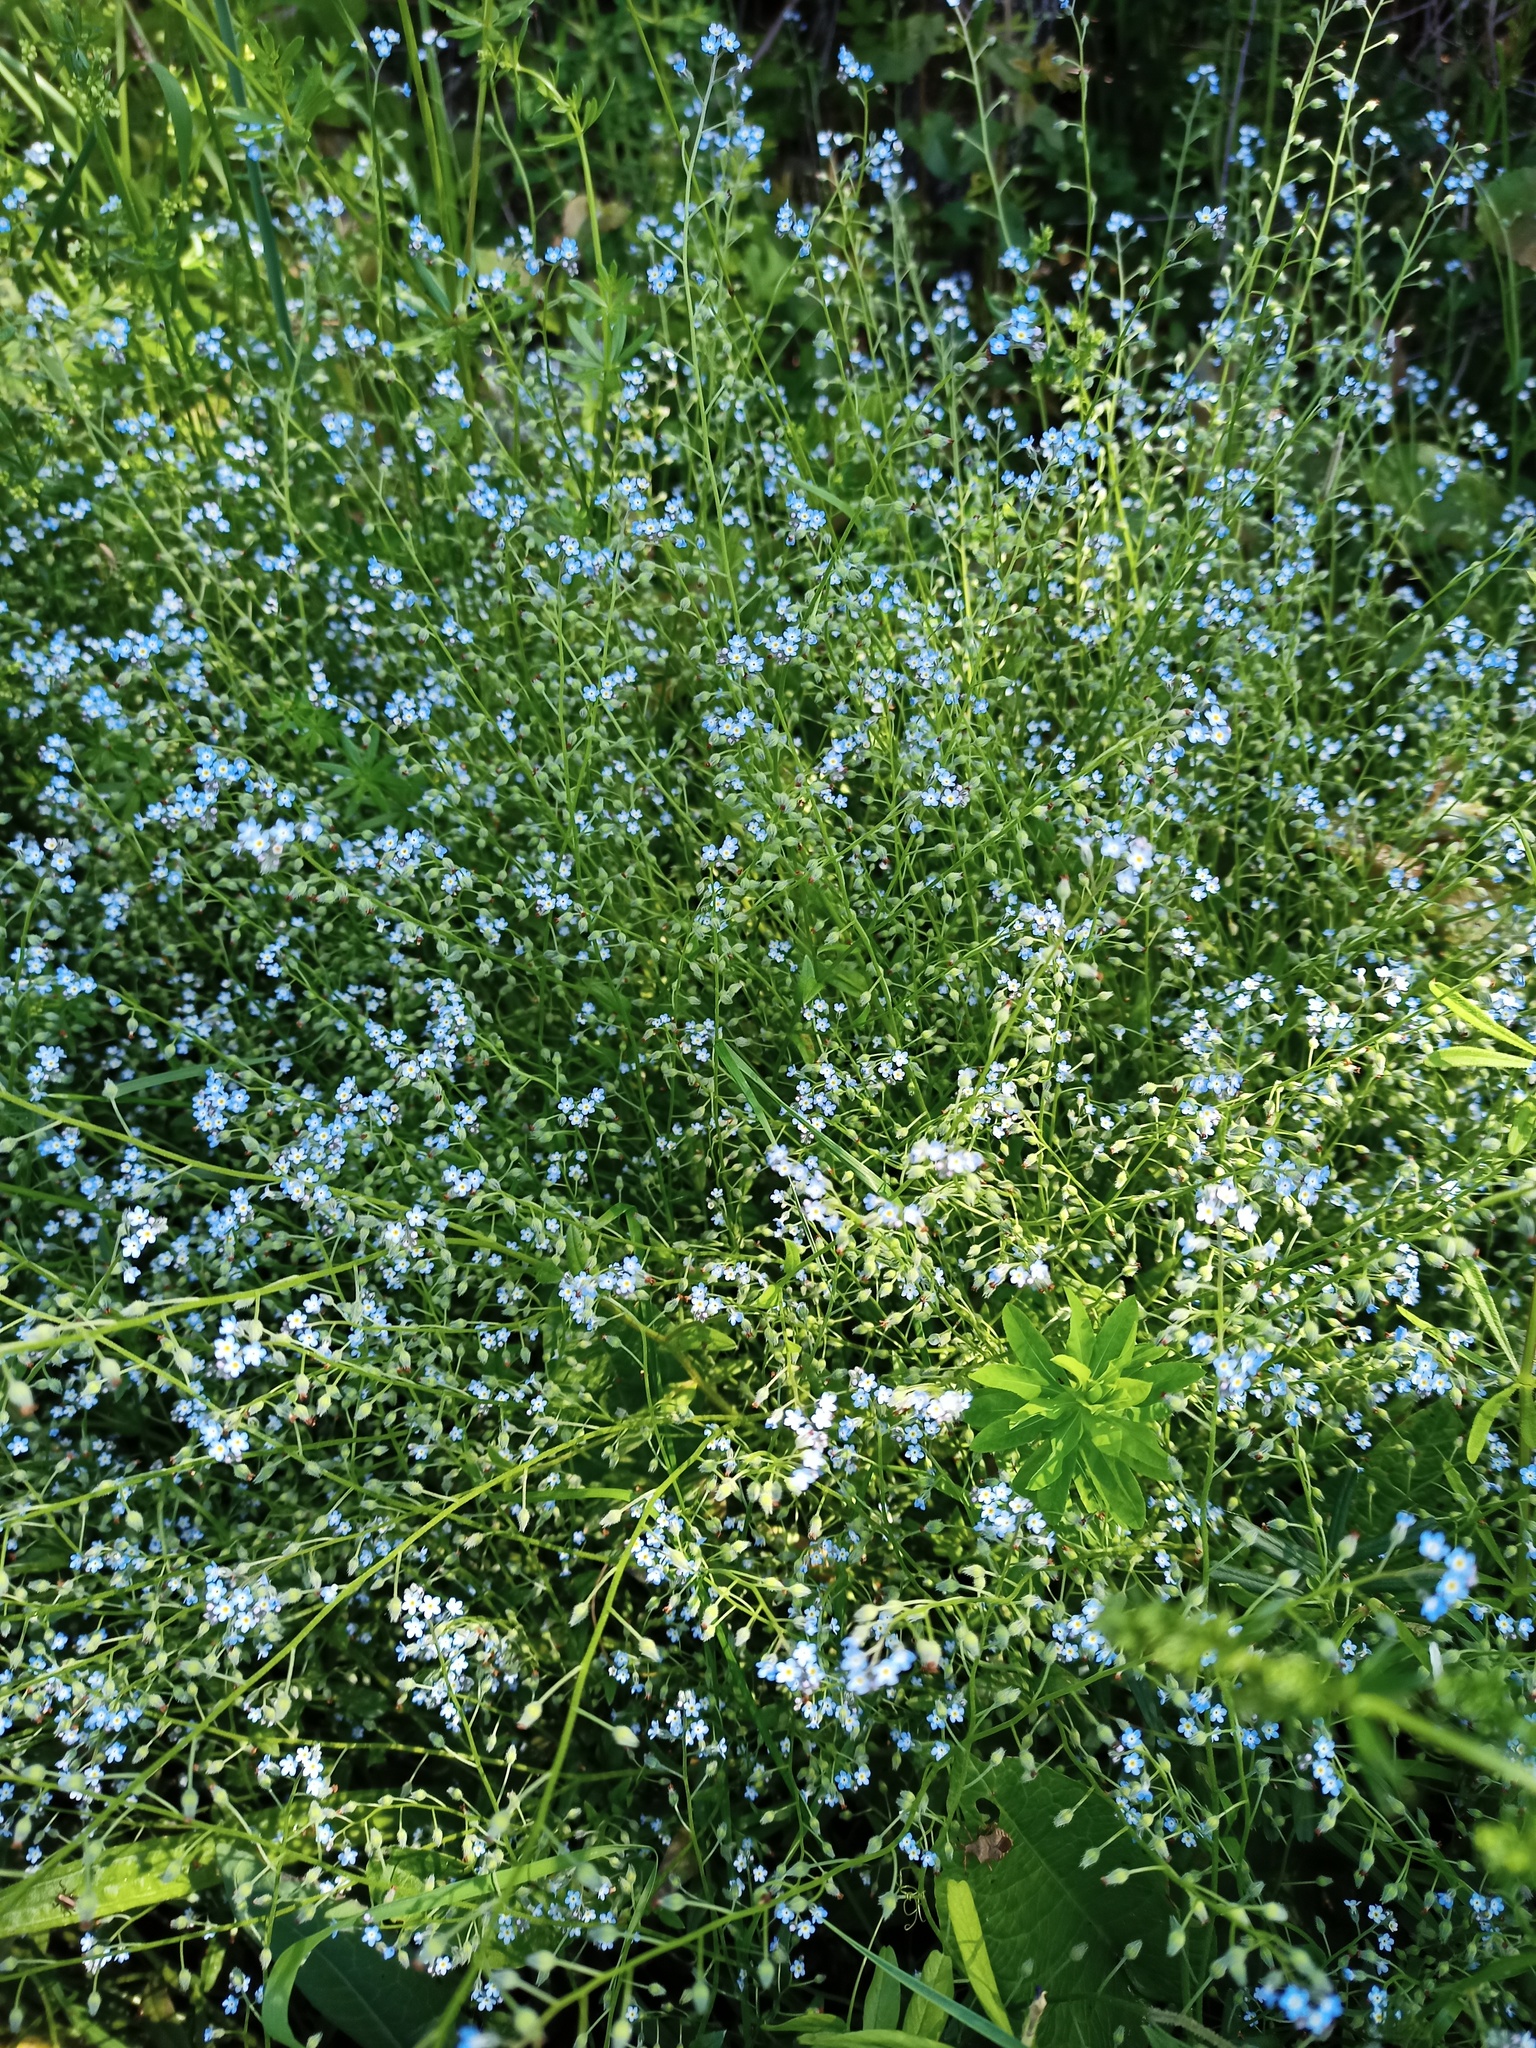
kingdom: Plantae
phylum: Tracheophyta
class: Magnoliopsida
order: Boraginales
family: Boraginaceae
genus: Myosotis
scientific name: Myosotis arvensis
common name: Field forget-me-not
